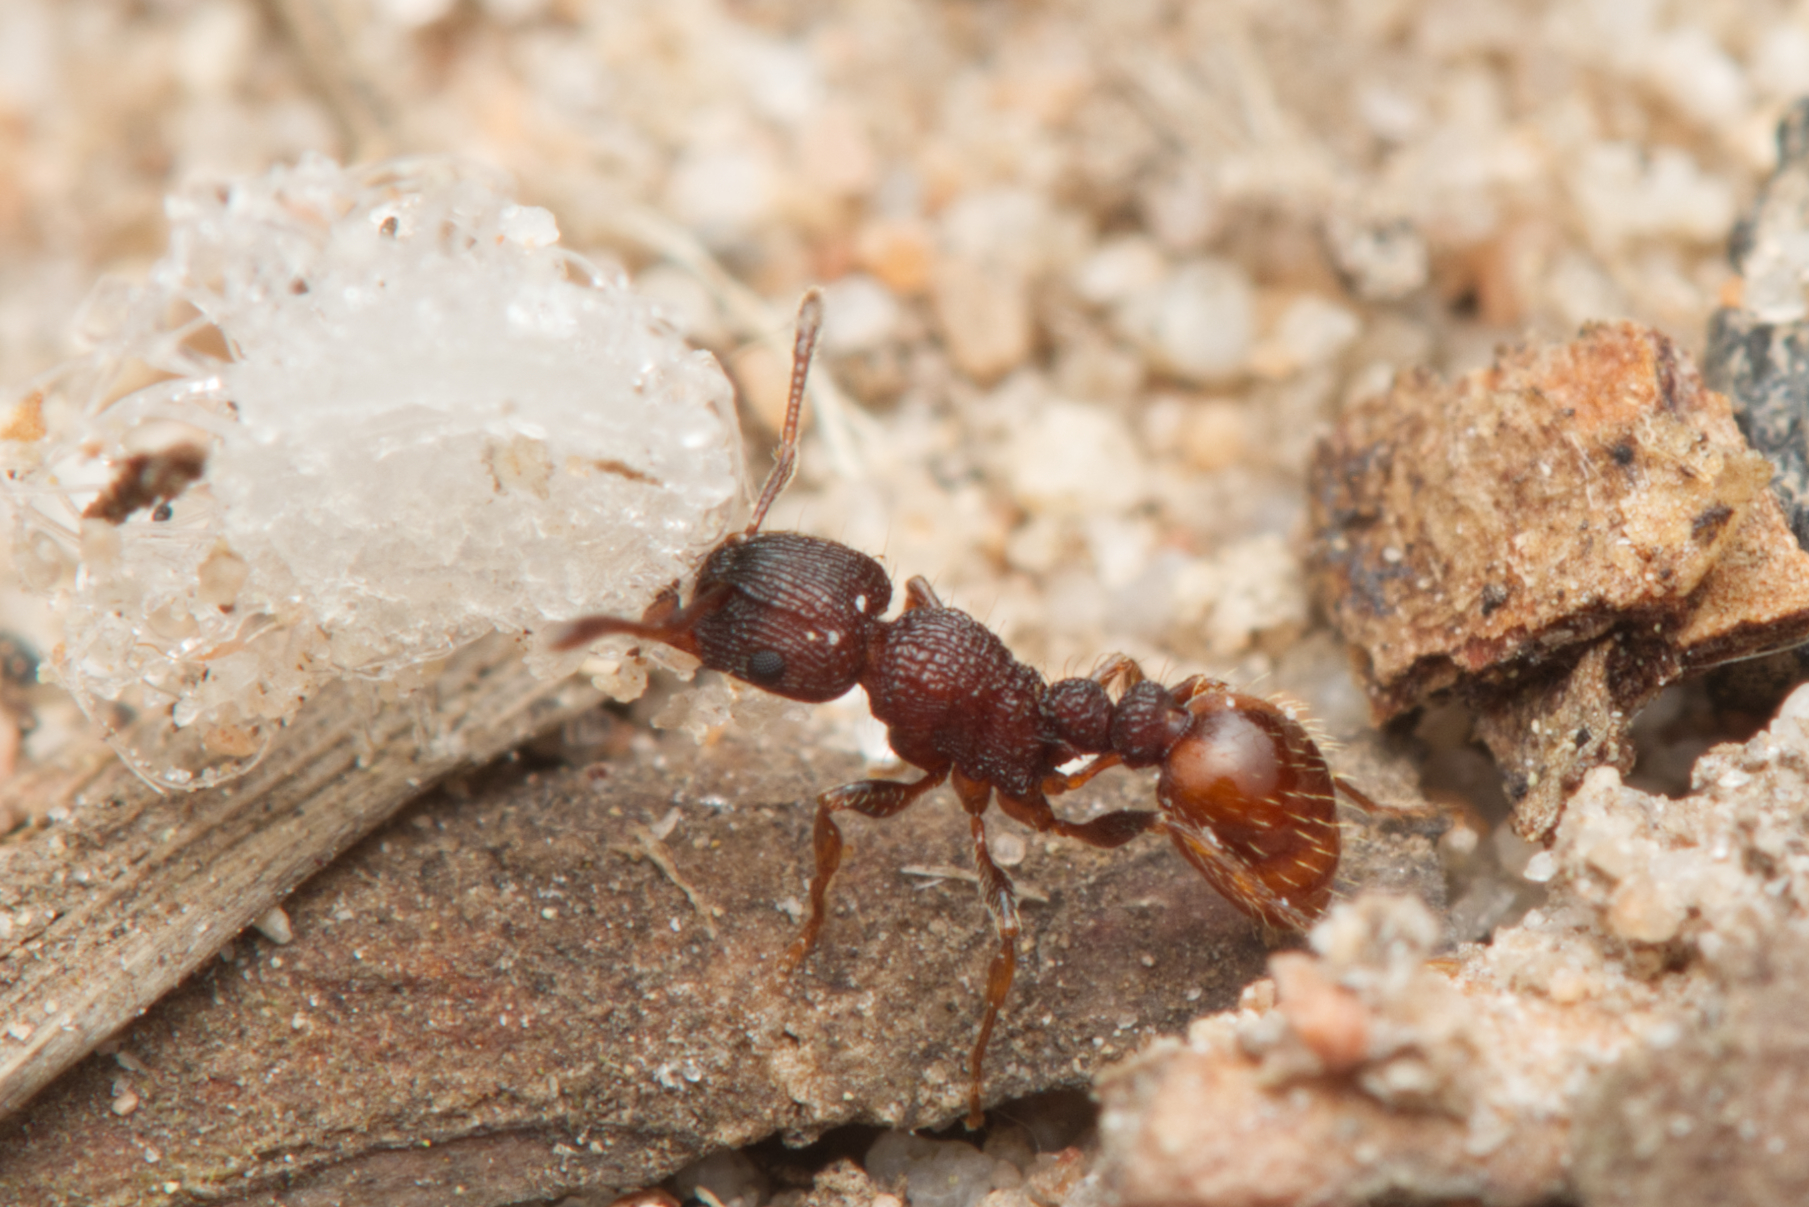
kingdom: Animalia
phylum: Arthropoda
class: Insecta
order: Hymenoptera
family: Formicidae
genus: Tetramorium
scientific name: Tetramorium impressum
